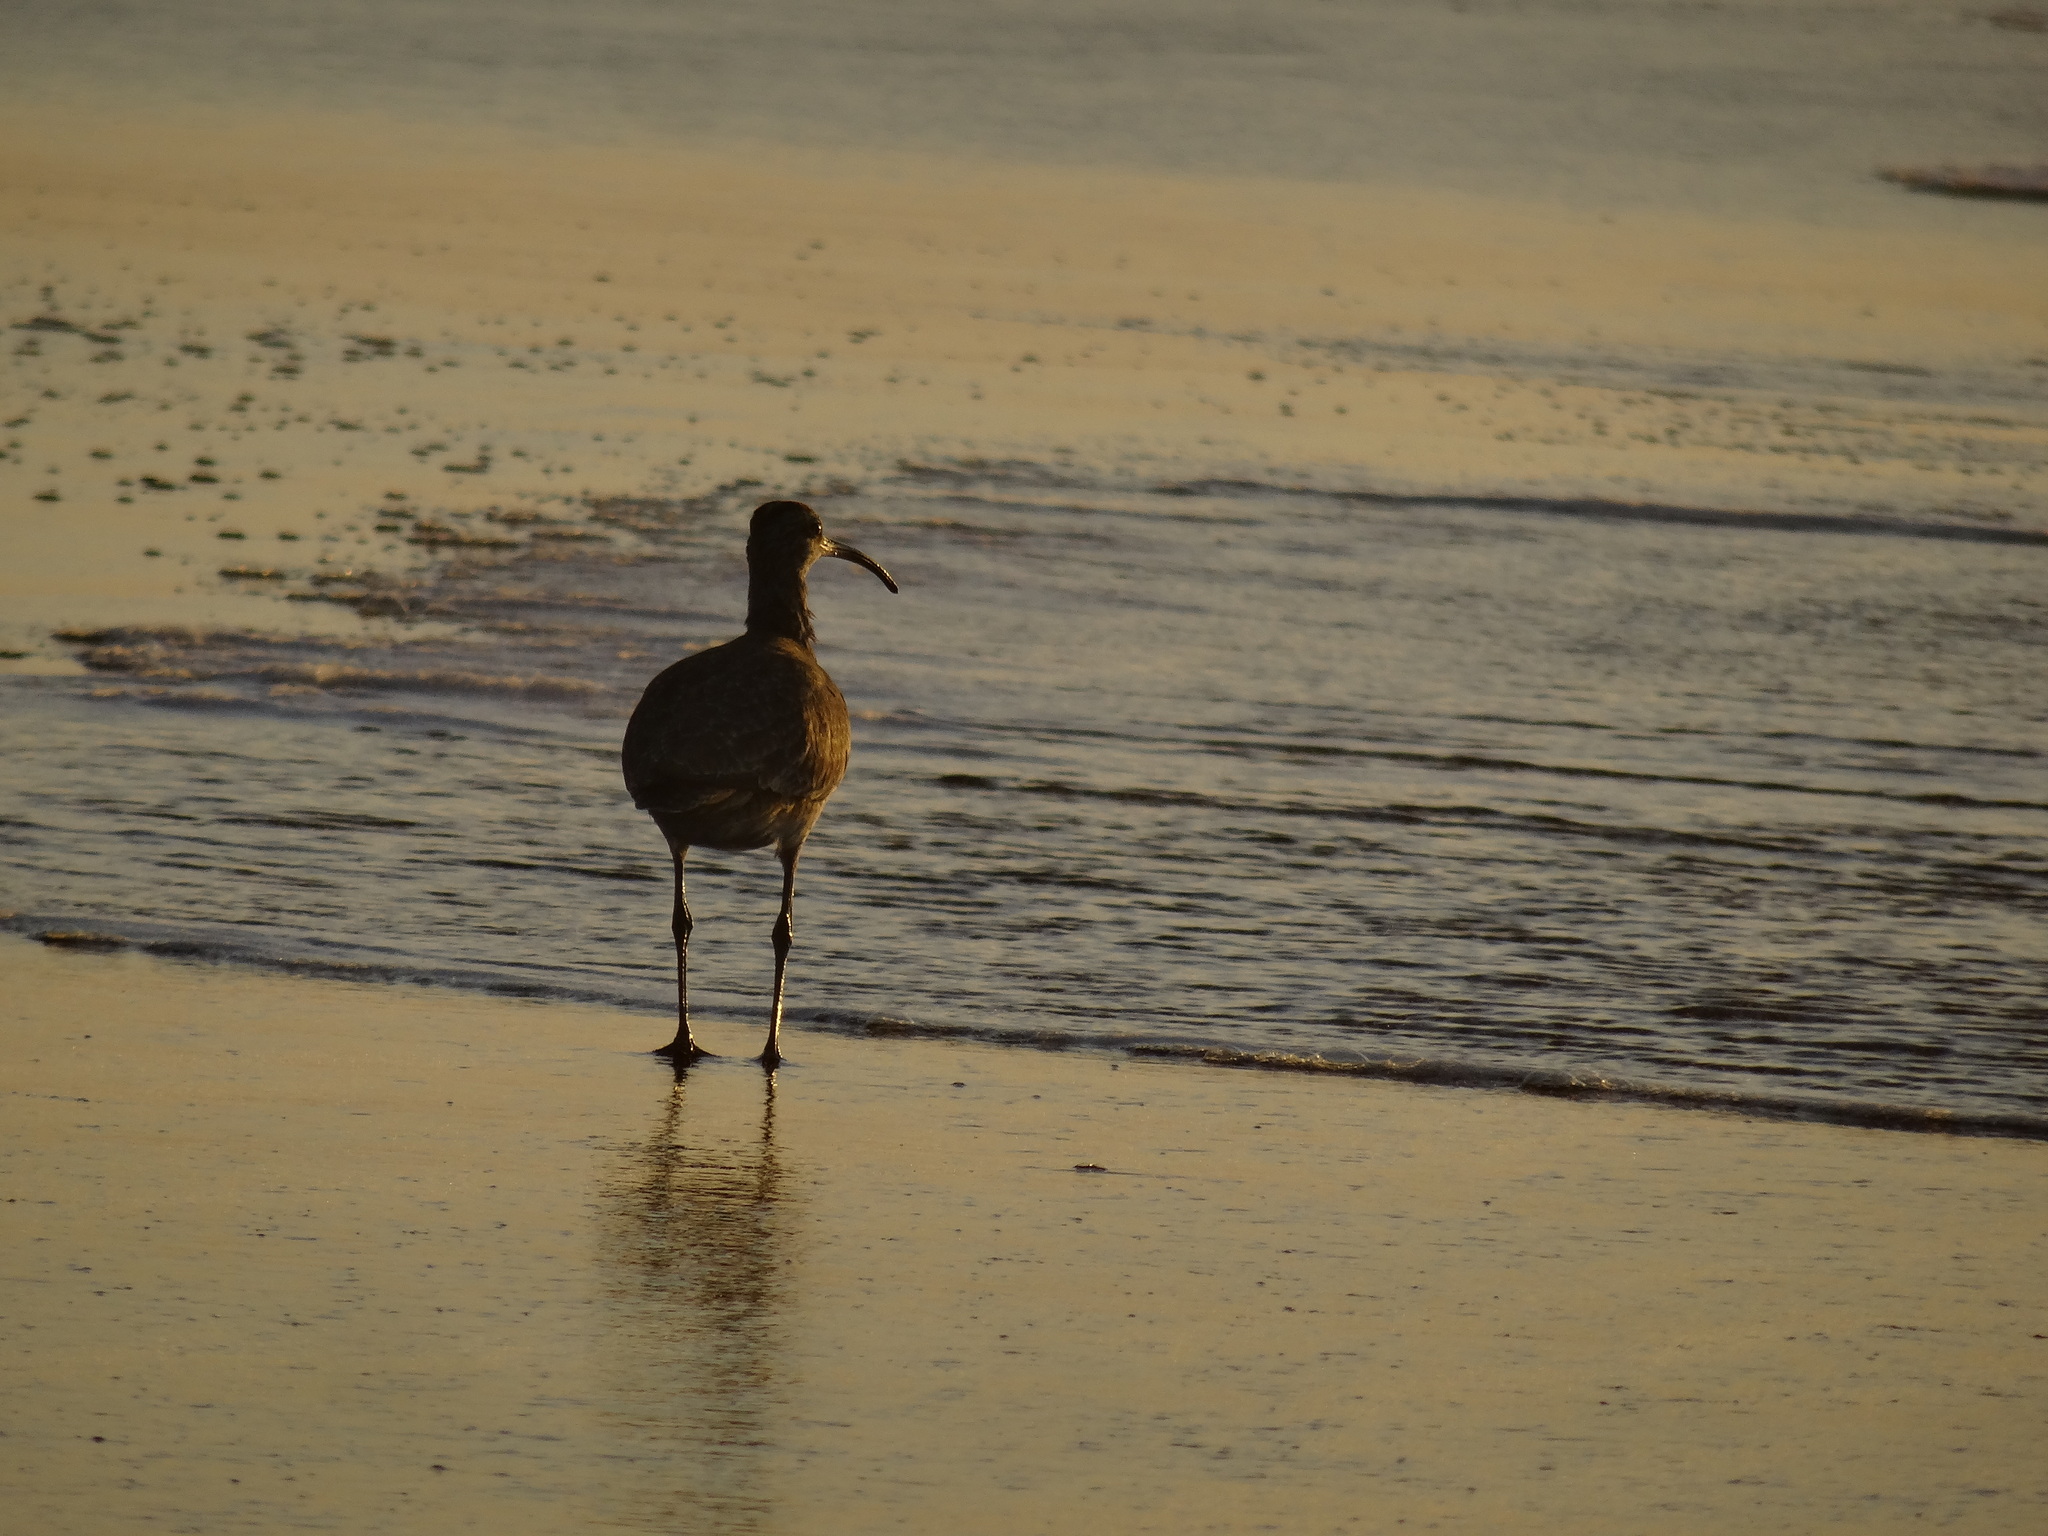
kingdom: Animalia
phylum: Chordata
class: Aves
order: Charadriiformes
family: Scolopacidae
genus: Numenius
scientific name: Numenius phaeopus
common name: Whimbrel
